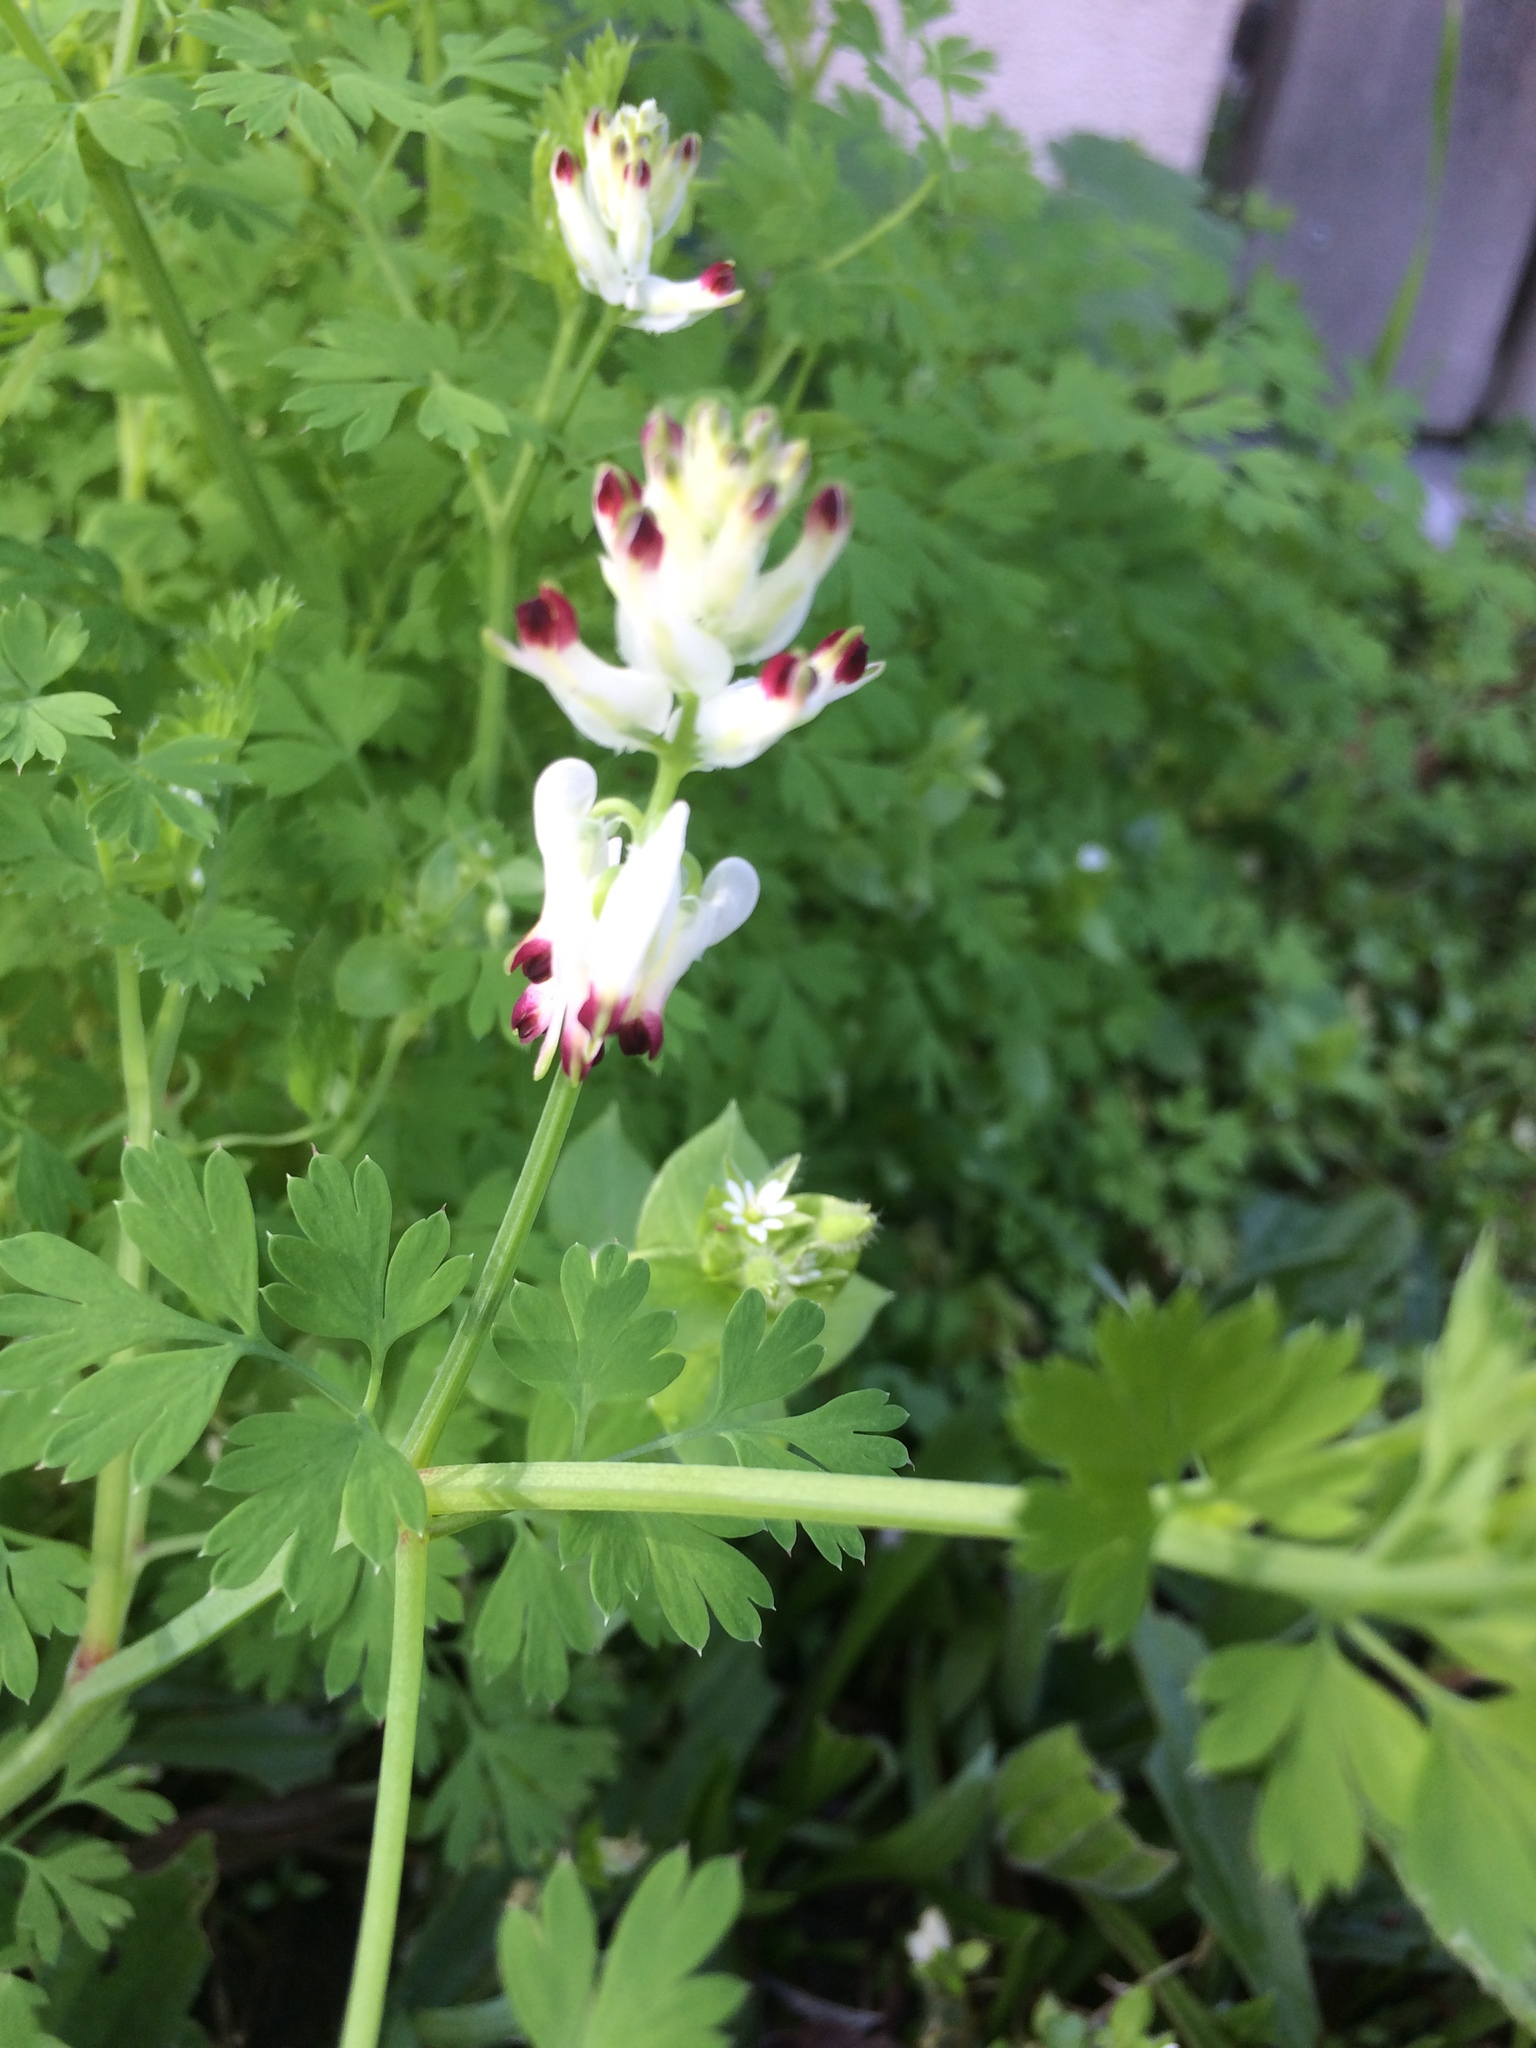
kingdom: Plantae
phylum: Tracheophyta
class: Magnoliopsida
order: Ranunculales
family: Papaveraceae
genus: Fumaria
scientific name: Fumaria capreolata
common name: White ramping-fumitory
